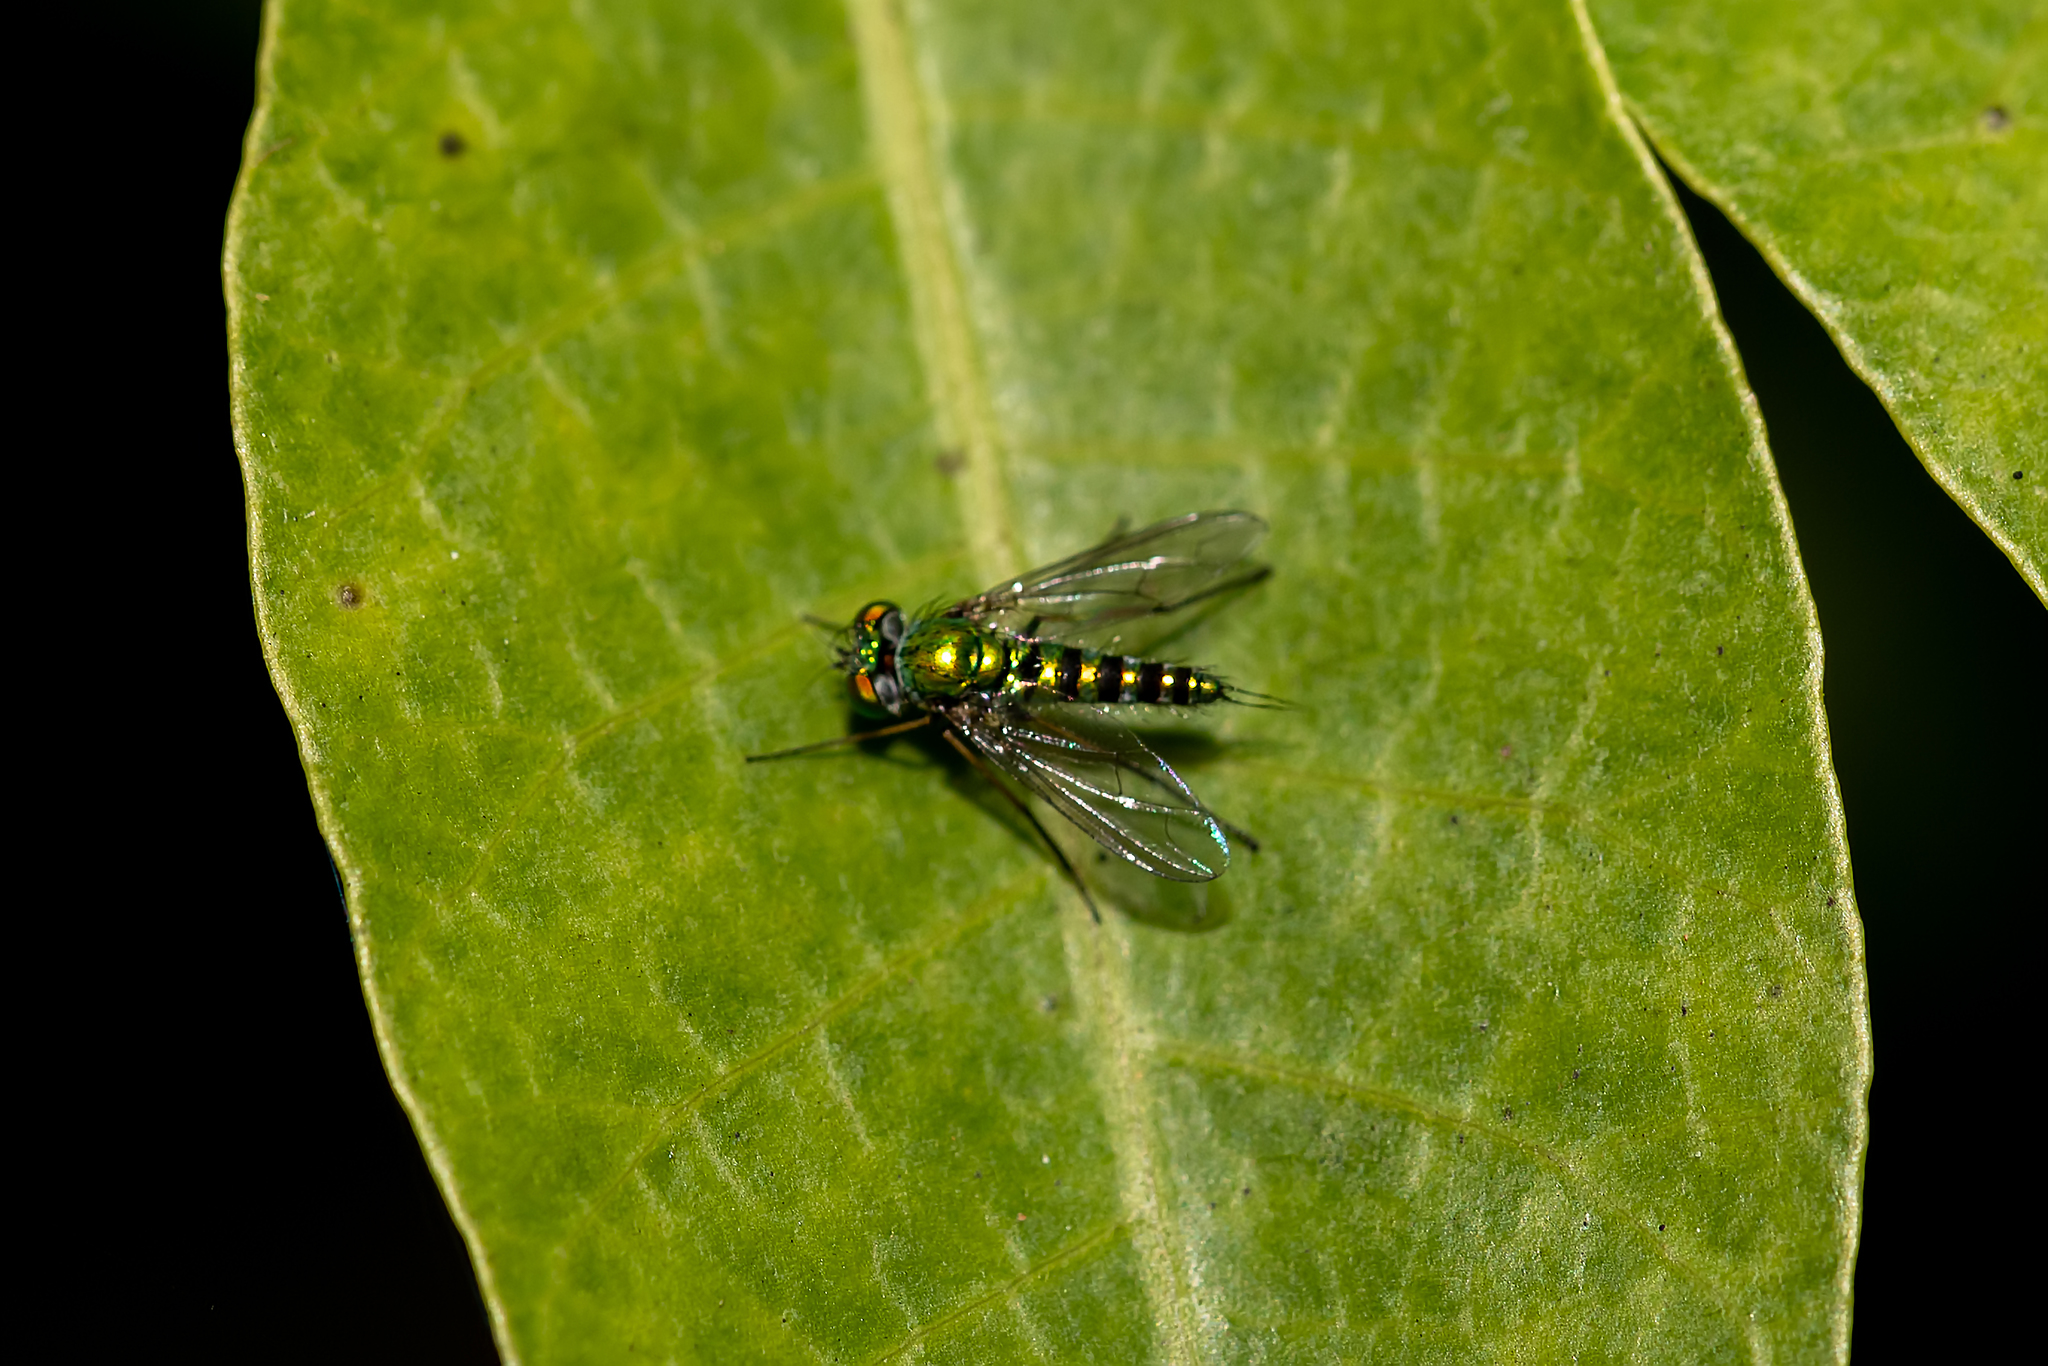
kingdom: Animalia
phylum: Arthropoda
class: Insecta
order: Diptera
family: Dolichopodidae
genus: Condylostylus
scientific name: Condylostylus graenicheri
